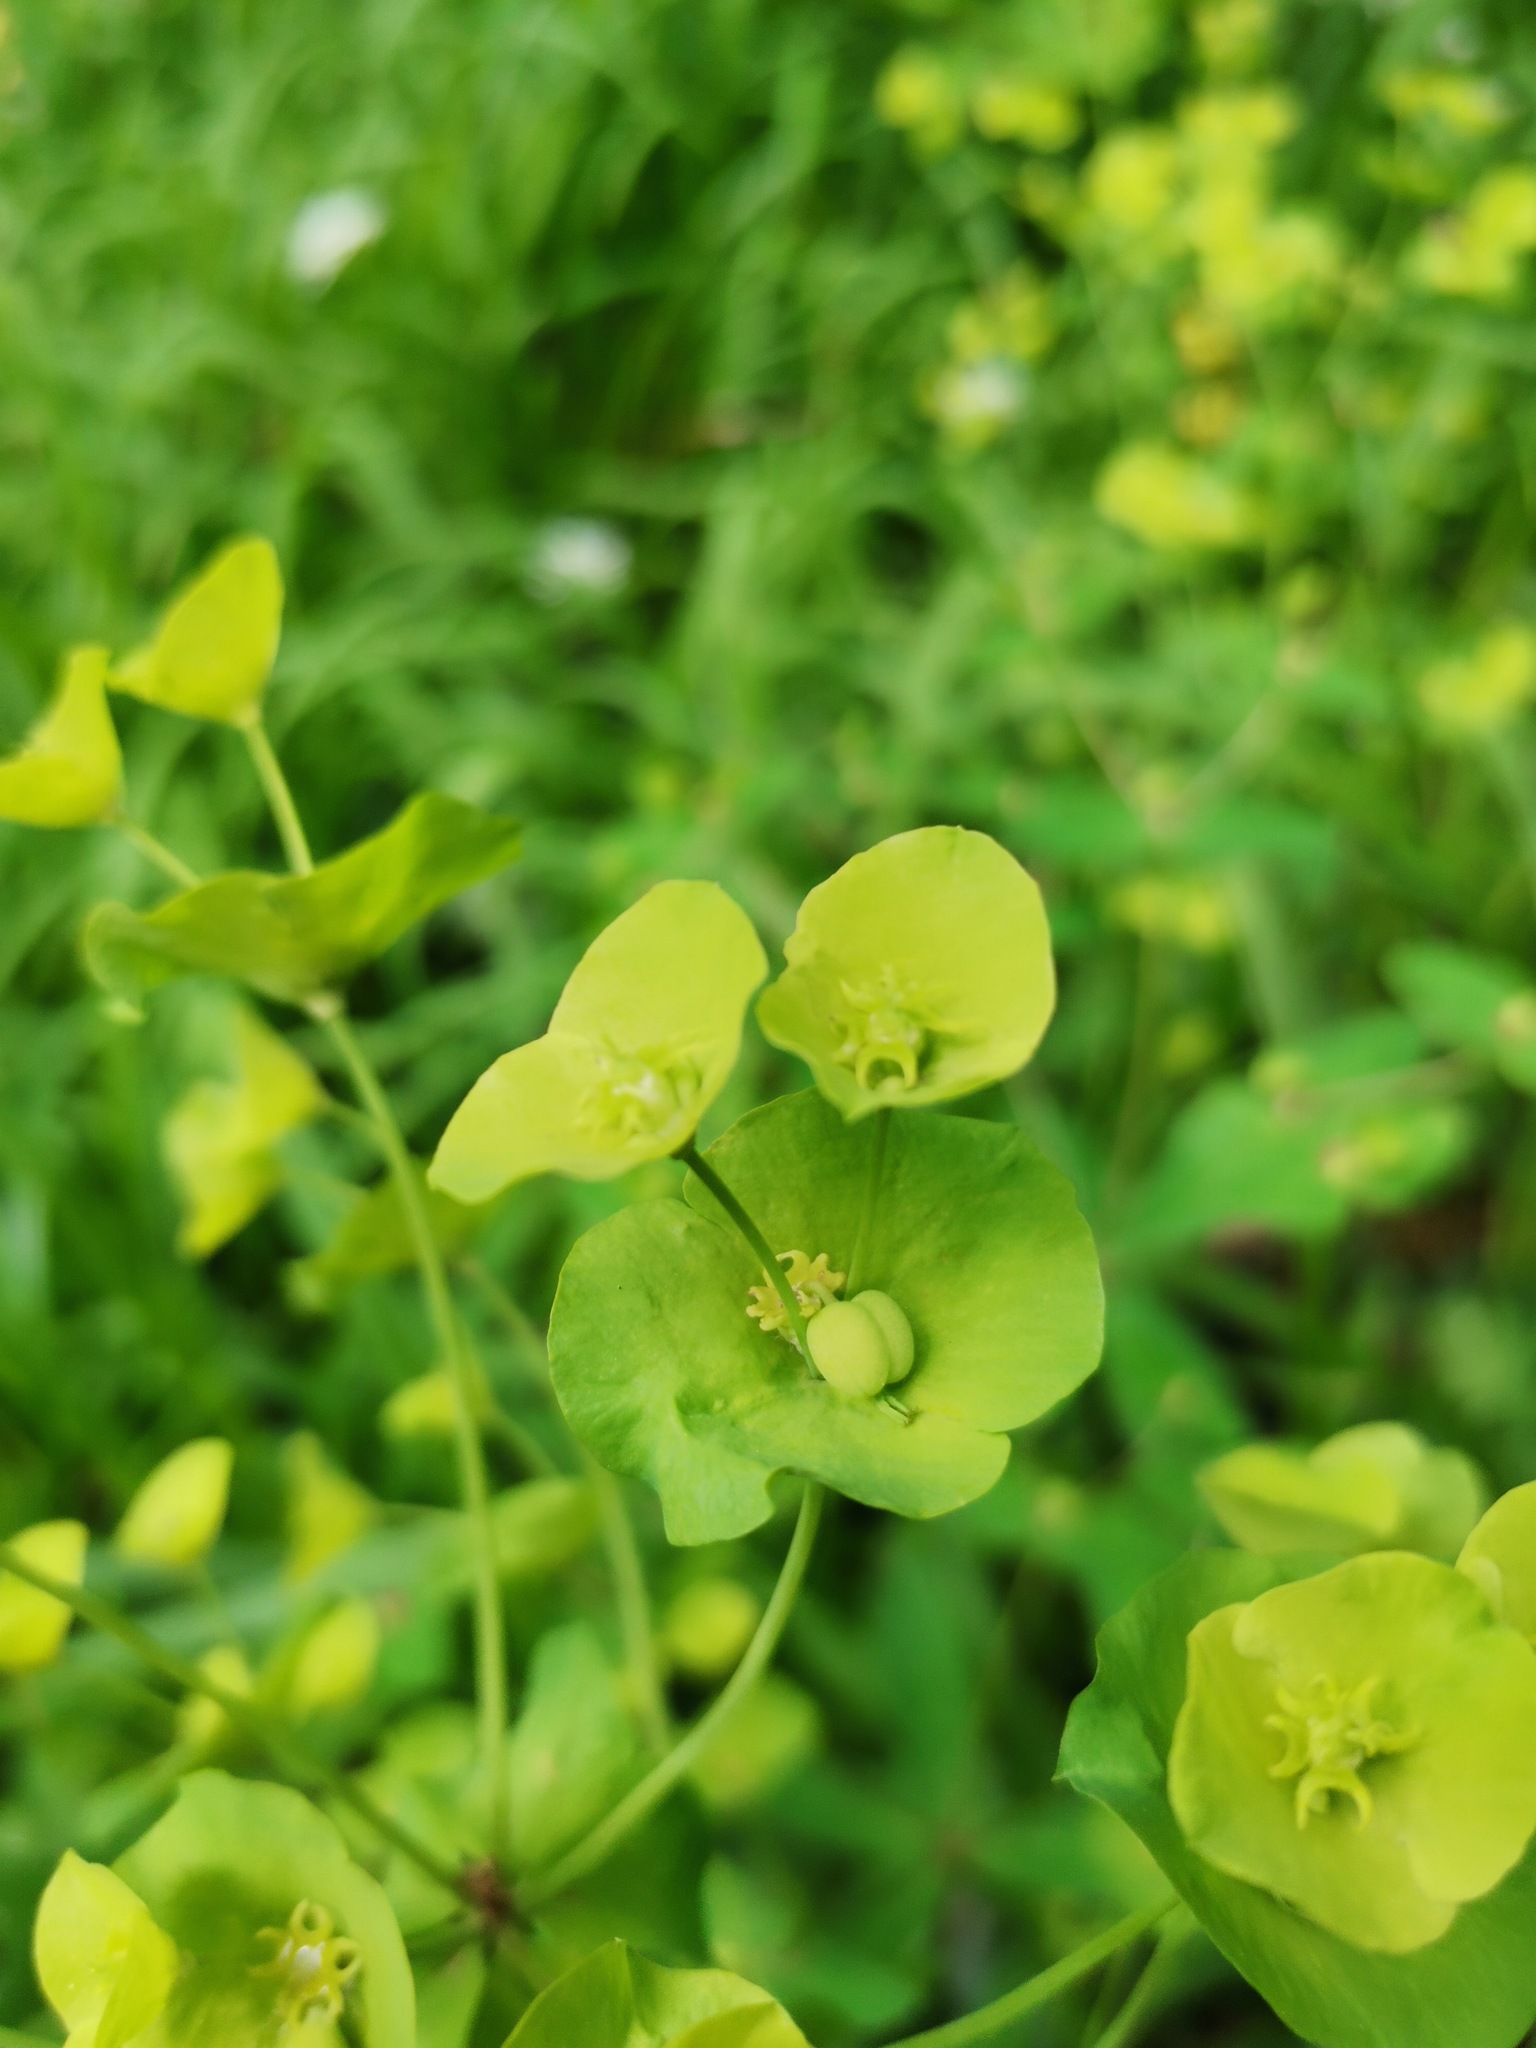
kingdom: Plantae
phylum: Tracheophyta
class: Magnoliopsida
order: Malpighiales
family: Euphorbiaceae
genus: Euphorbia
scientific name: Euphorbia amygdaloides
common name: Wood spurge
